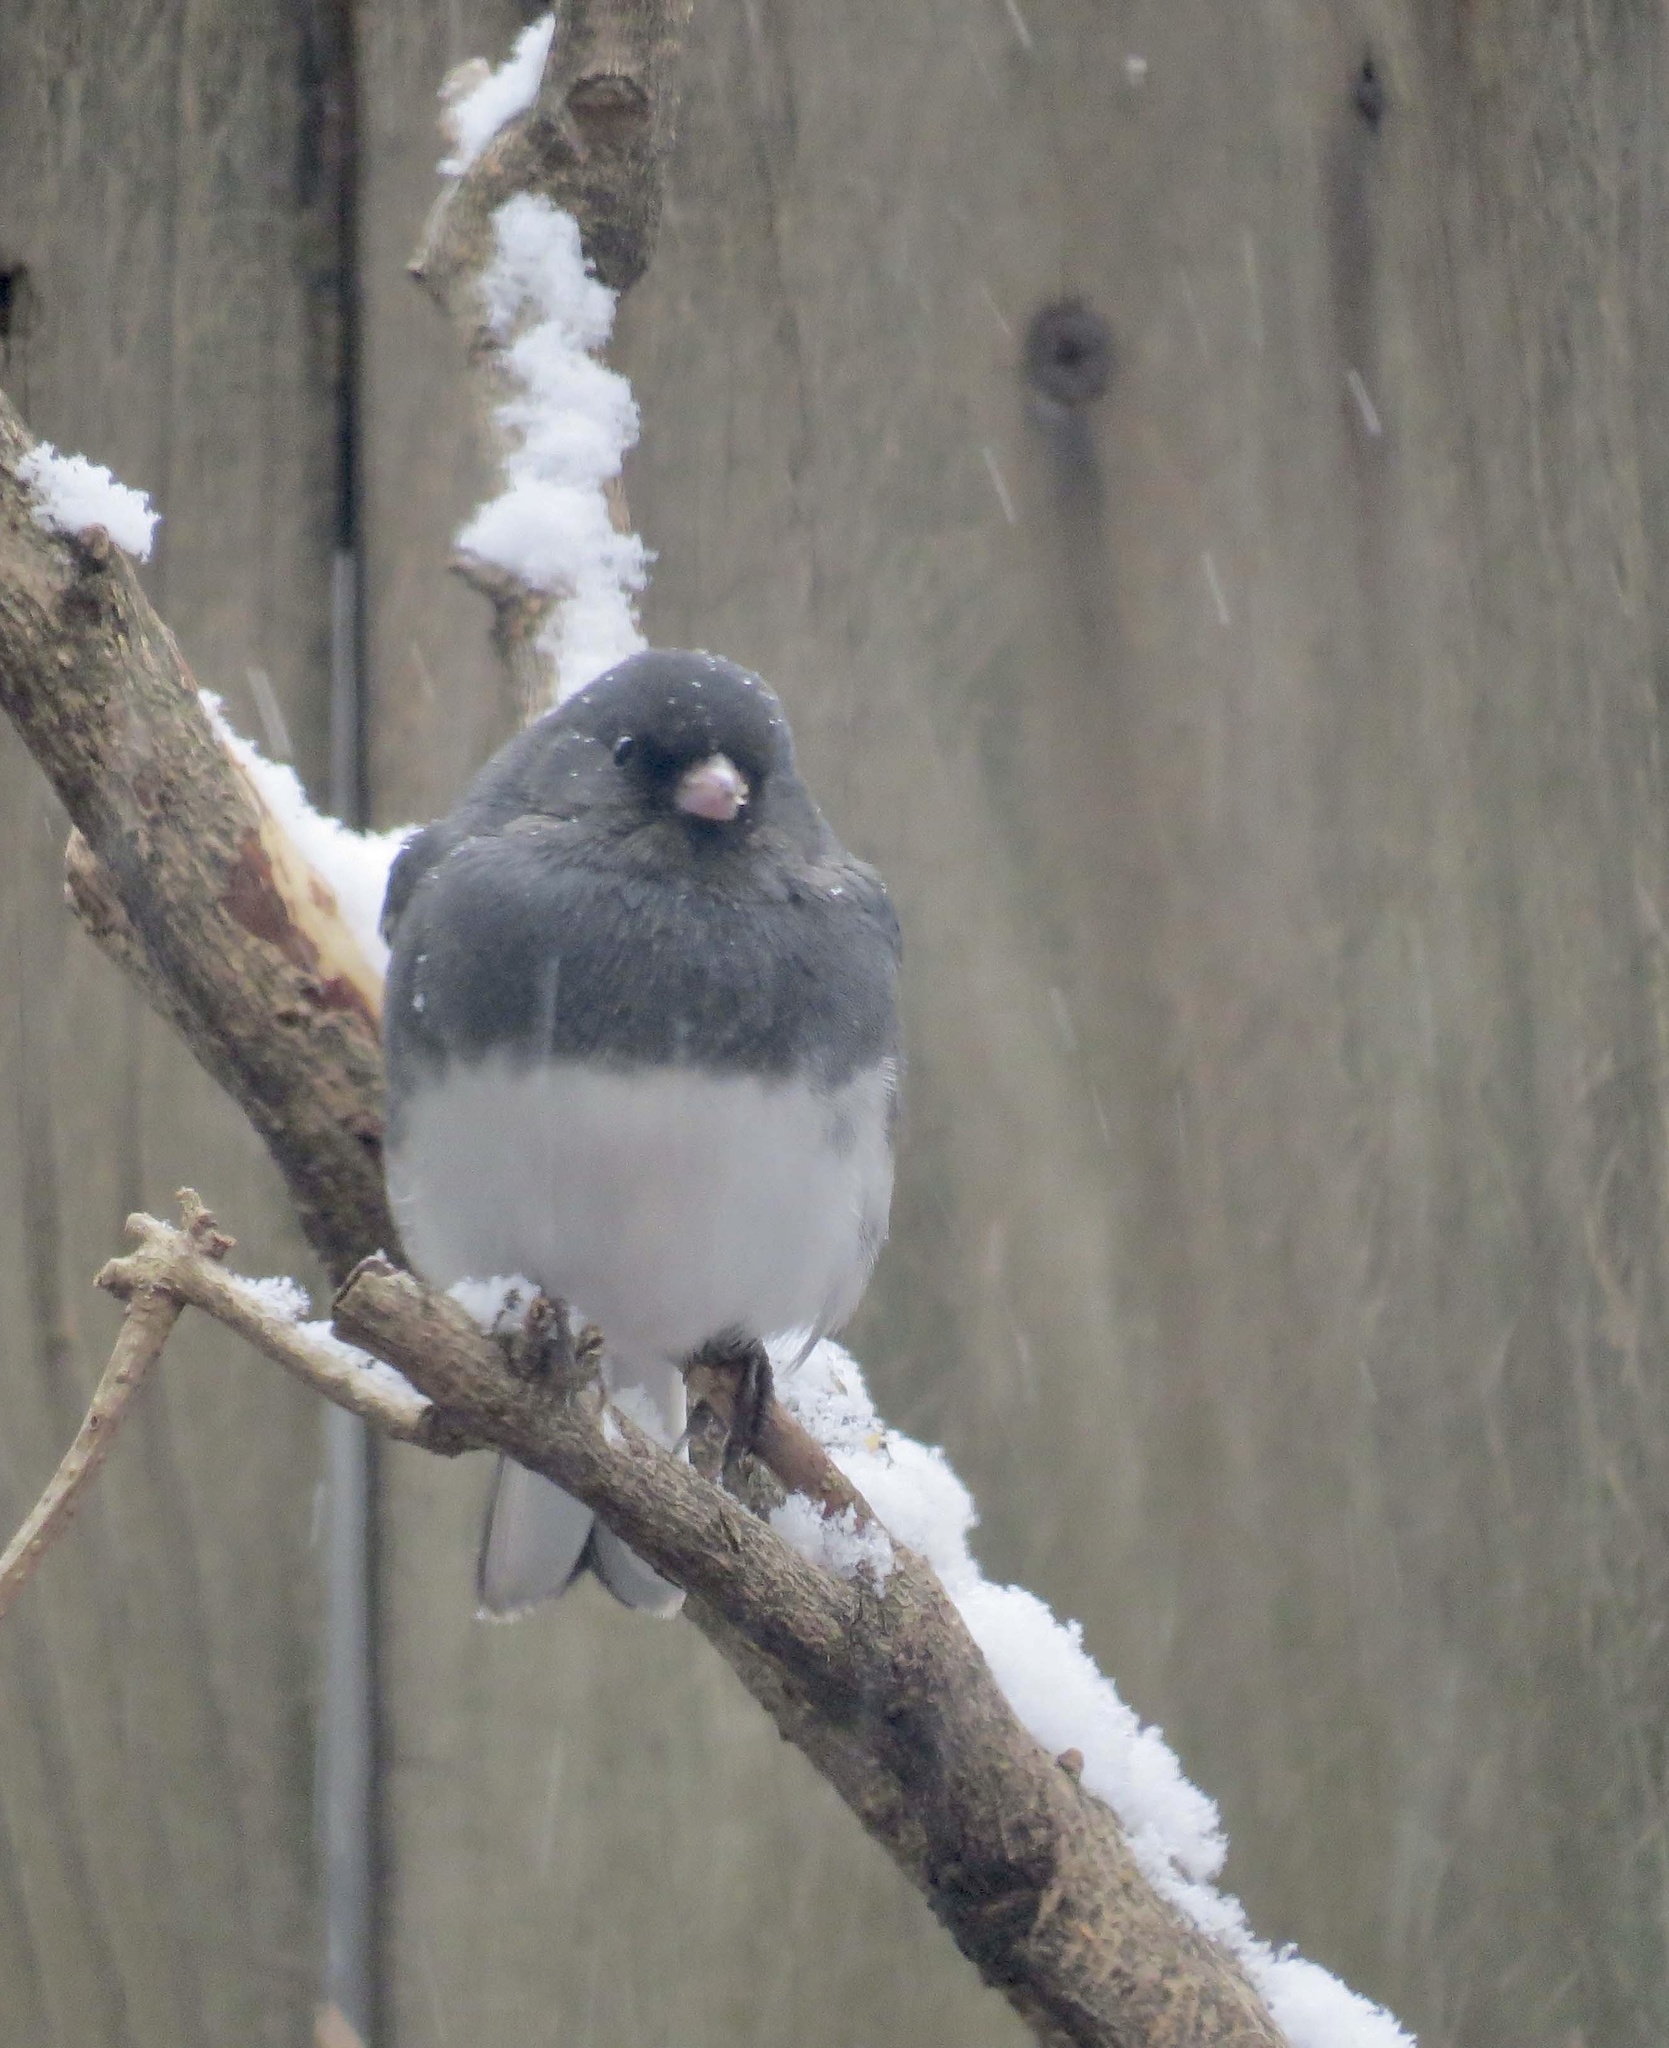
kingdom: Animalia
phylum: Chordata
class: Aves
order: Passeriformes
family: Passerellidae
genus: Junco
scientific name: Junco hyemalis
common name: Dark-eyed junco
